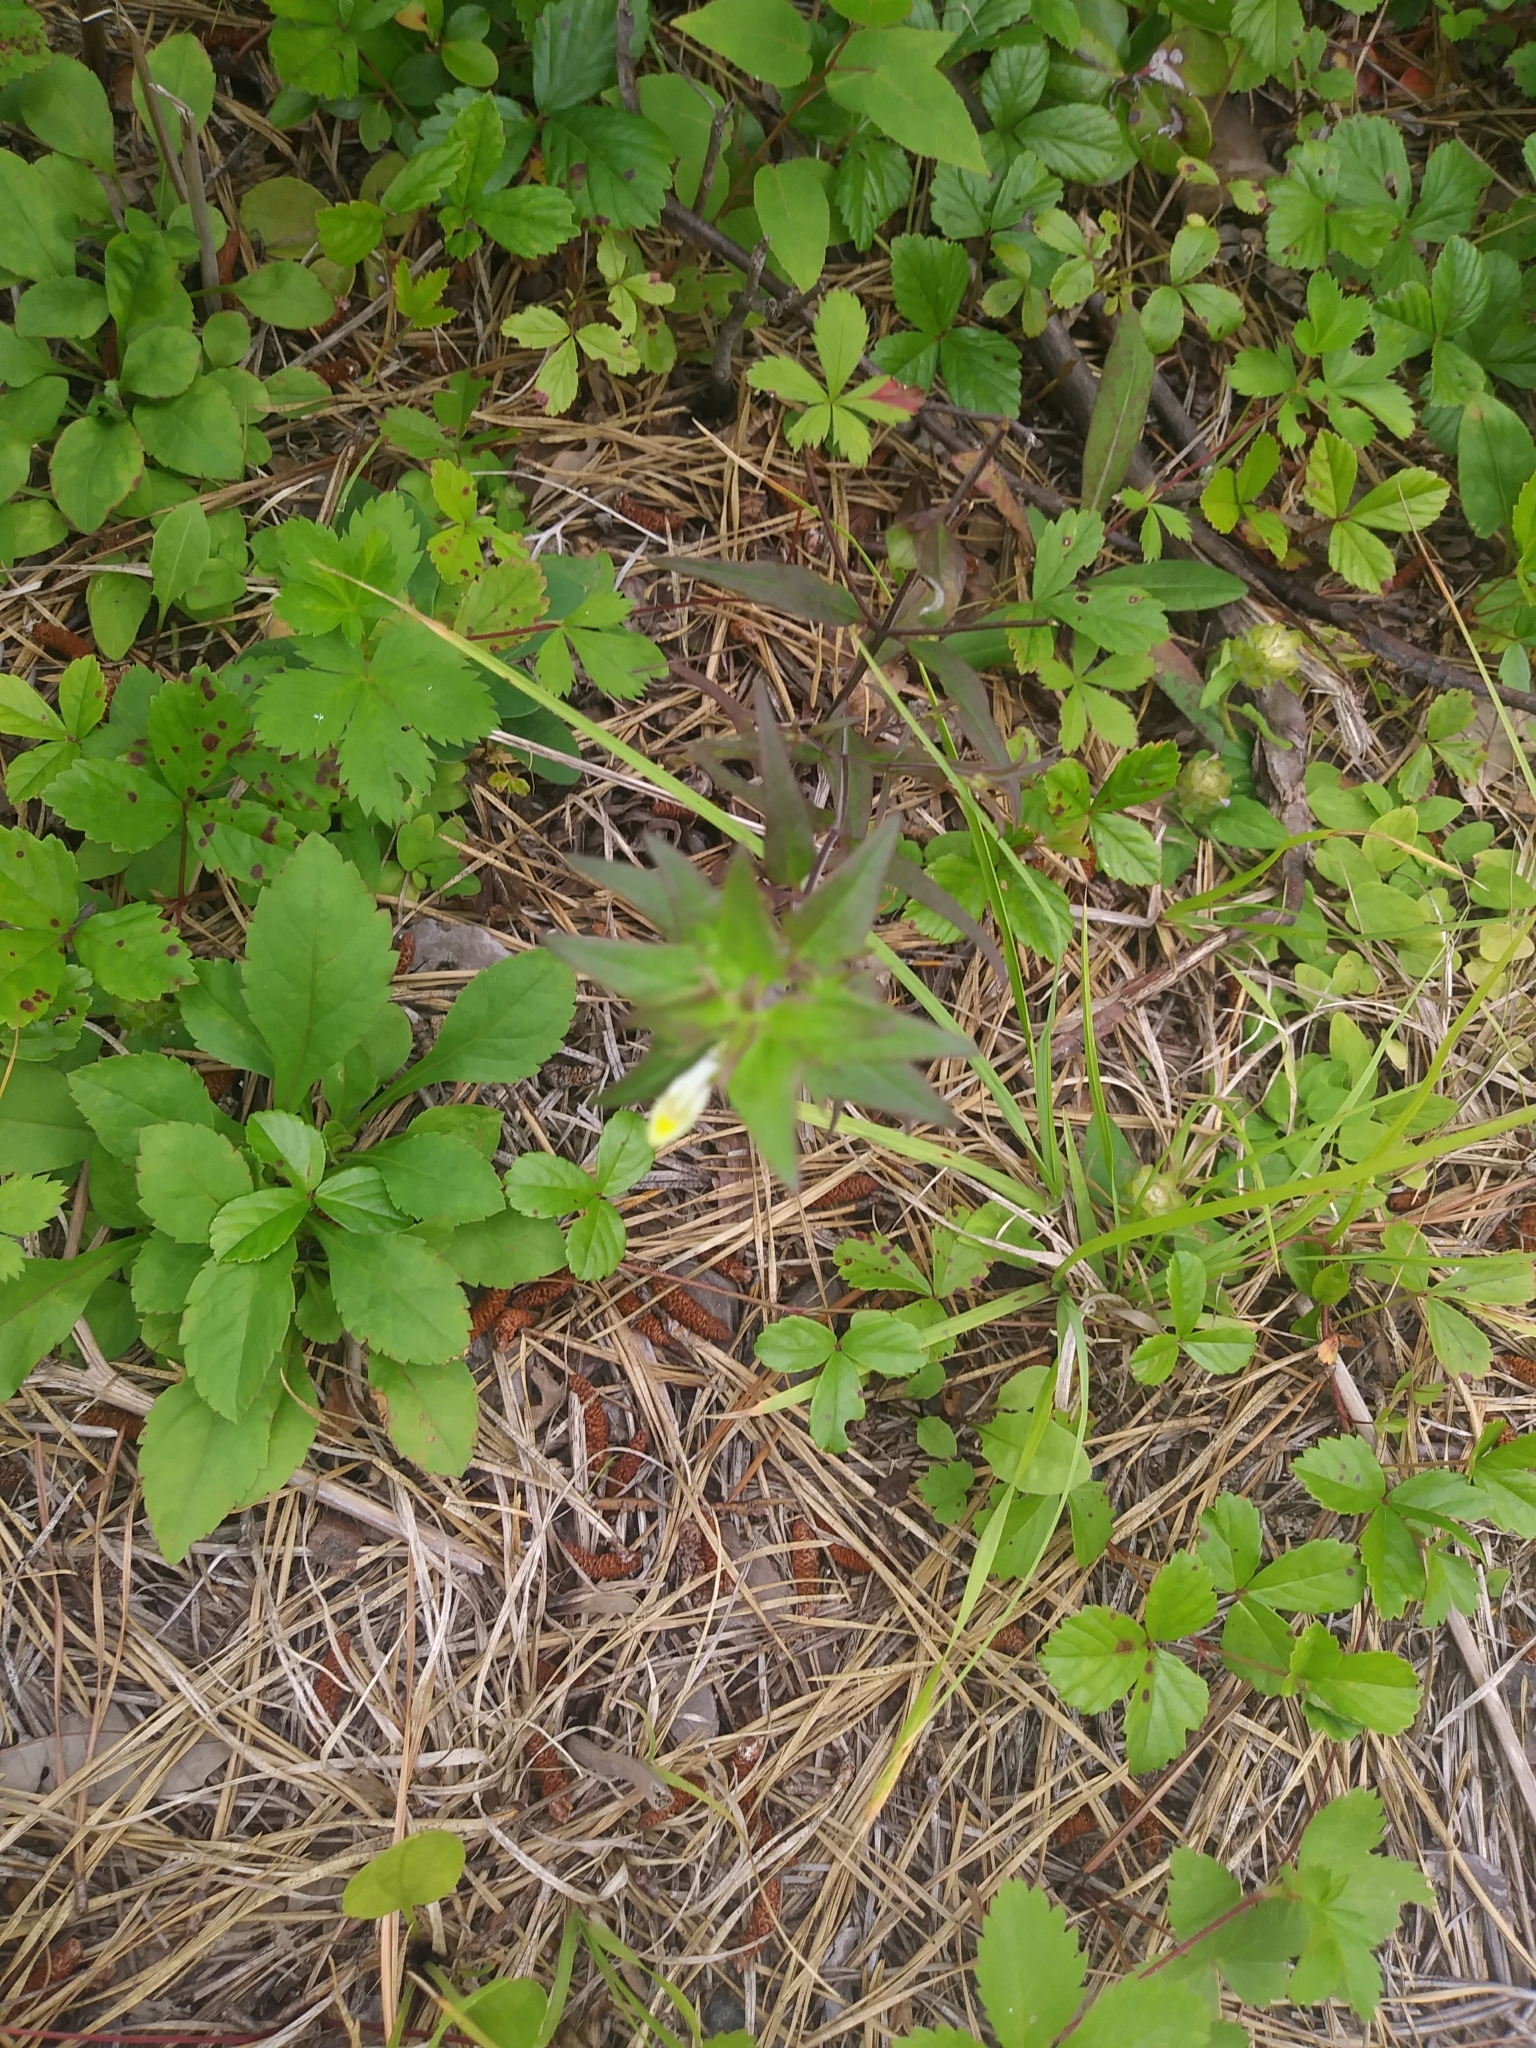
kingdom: Plantae
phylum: Tracheophyta
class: Magnoliopsida
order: Lamiales
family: Orobanchaceae
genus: Melampyrum
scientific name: Melampyrum lineare
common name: American cow-wheat
